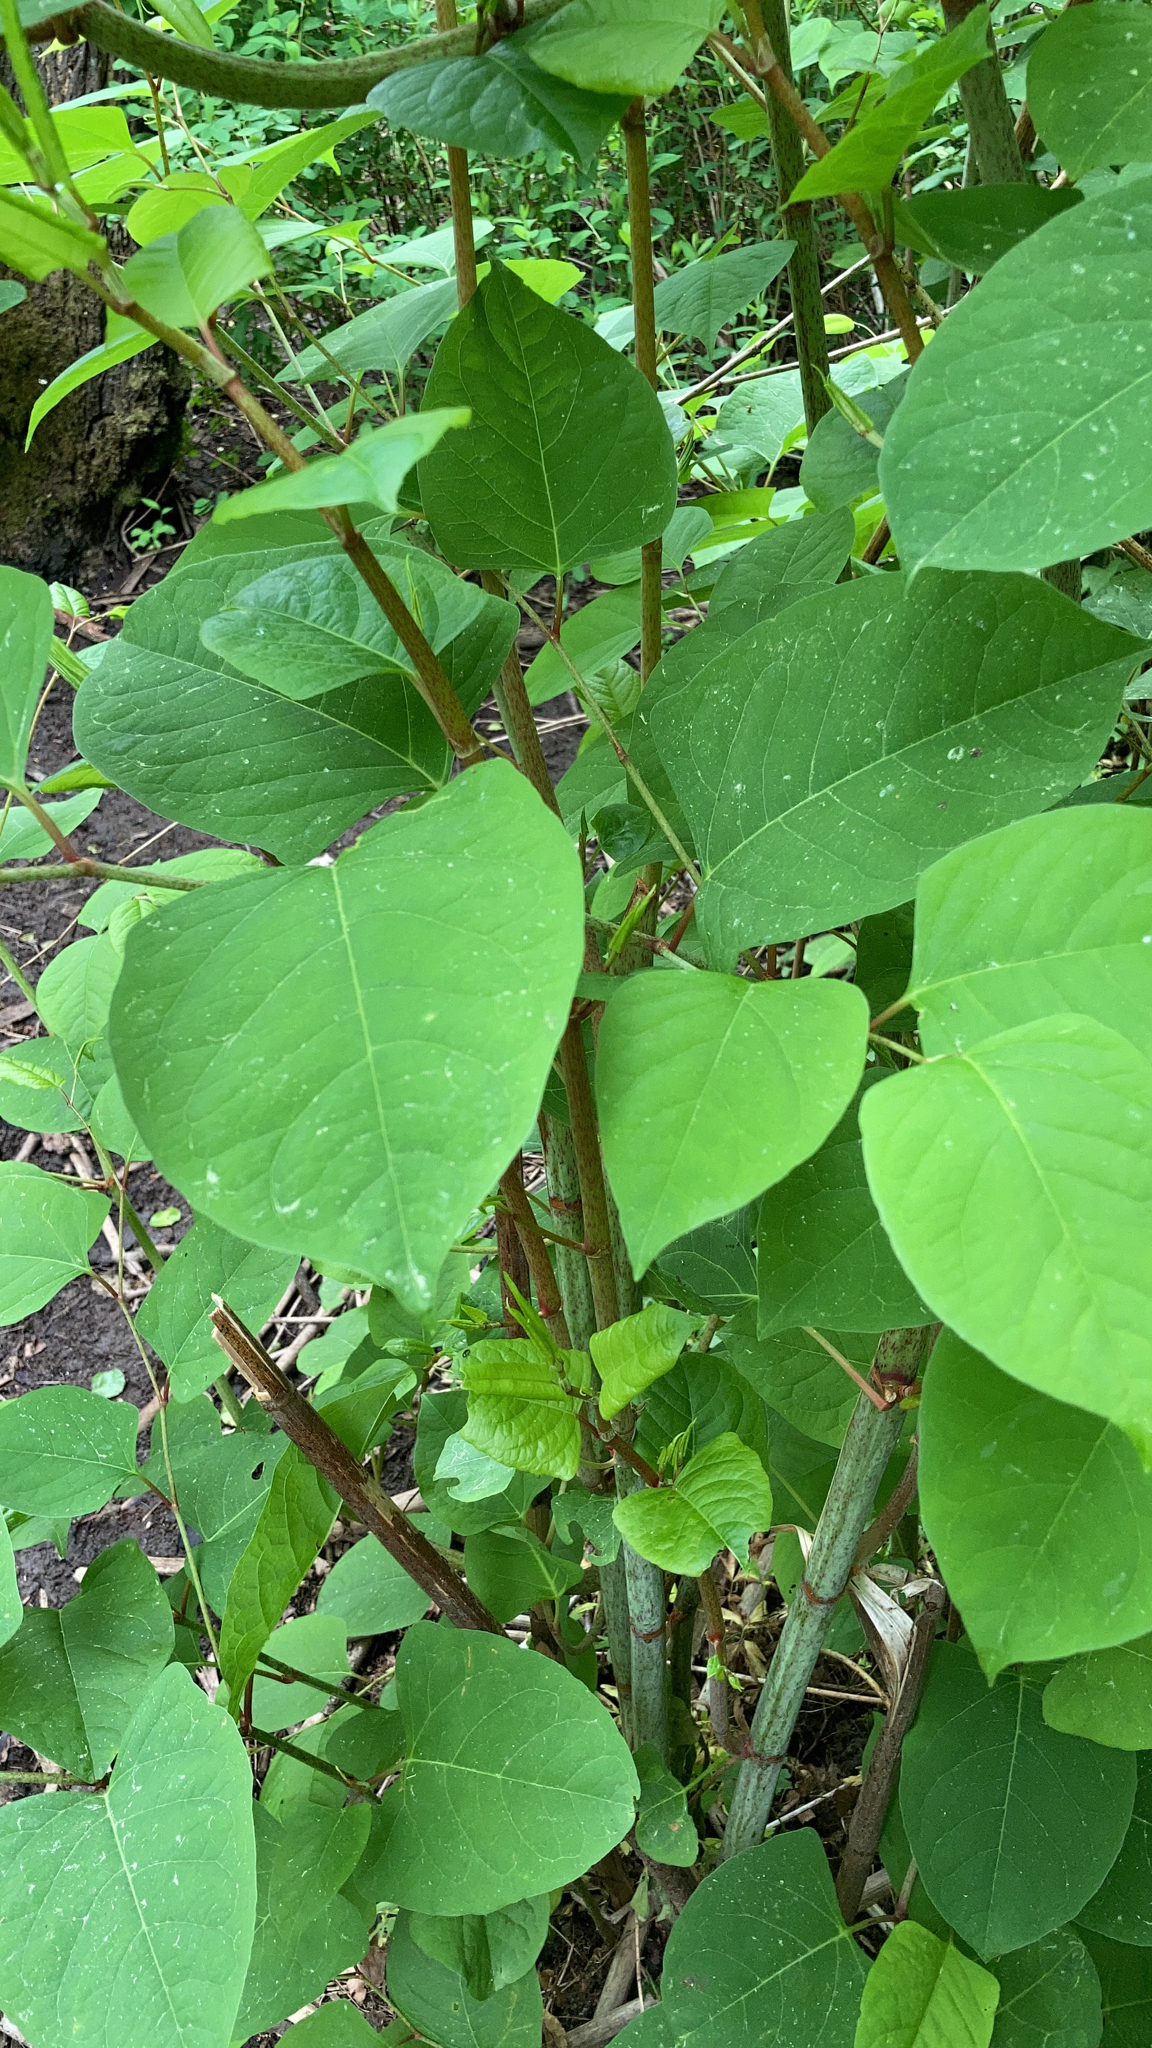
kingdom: Plantae
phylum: Tracheophyta
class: Magnoliopsida
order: Caryophyllales
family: Polygonaceae
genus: Reynoutria
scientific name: Reynoutria japonica
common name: Japanese knotweed
